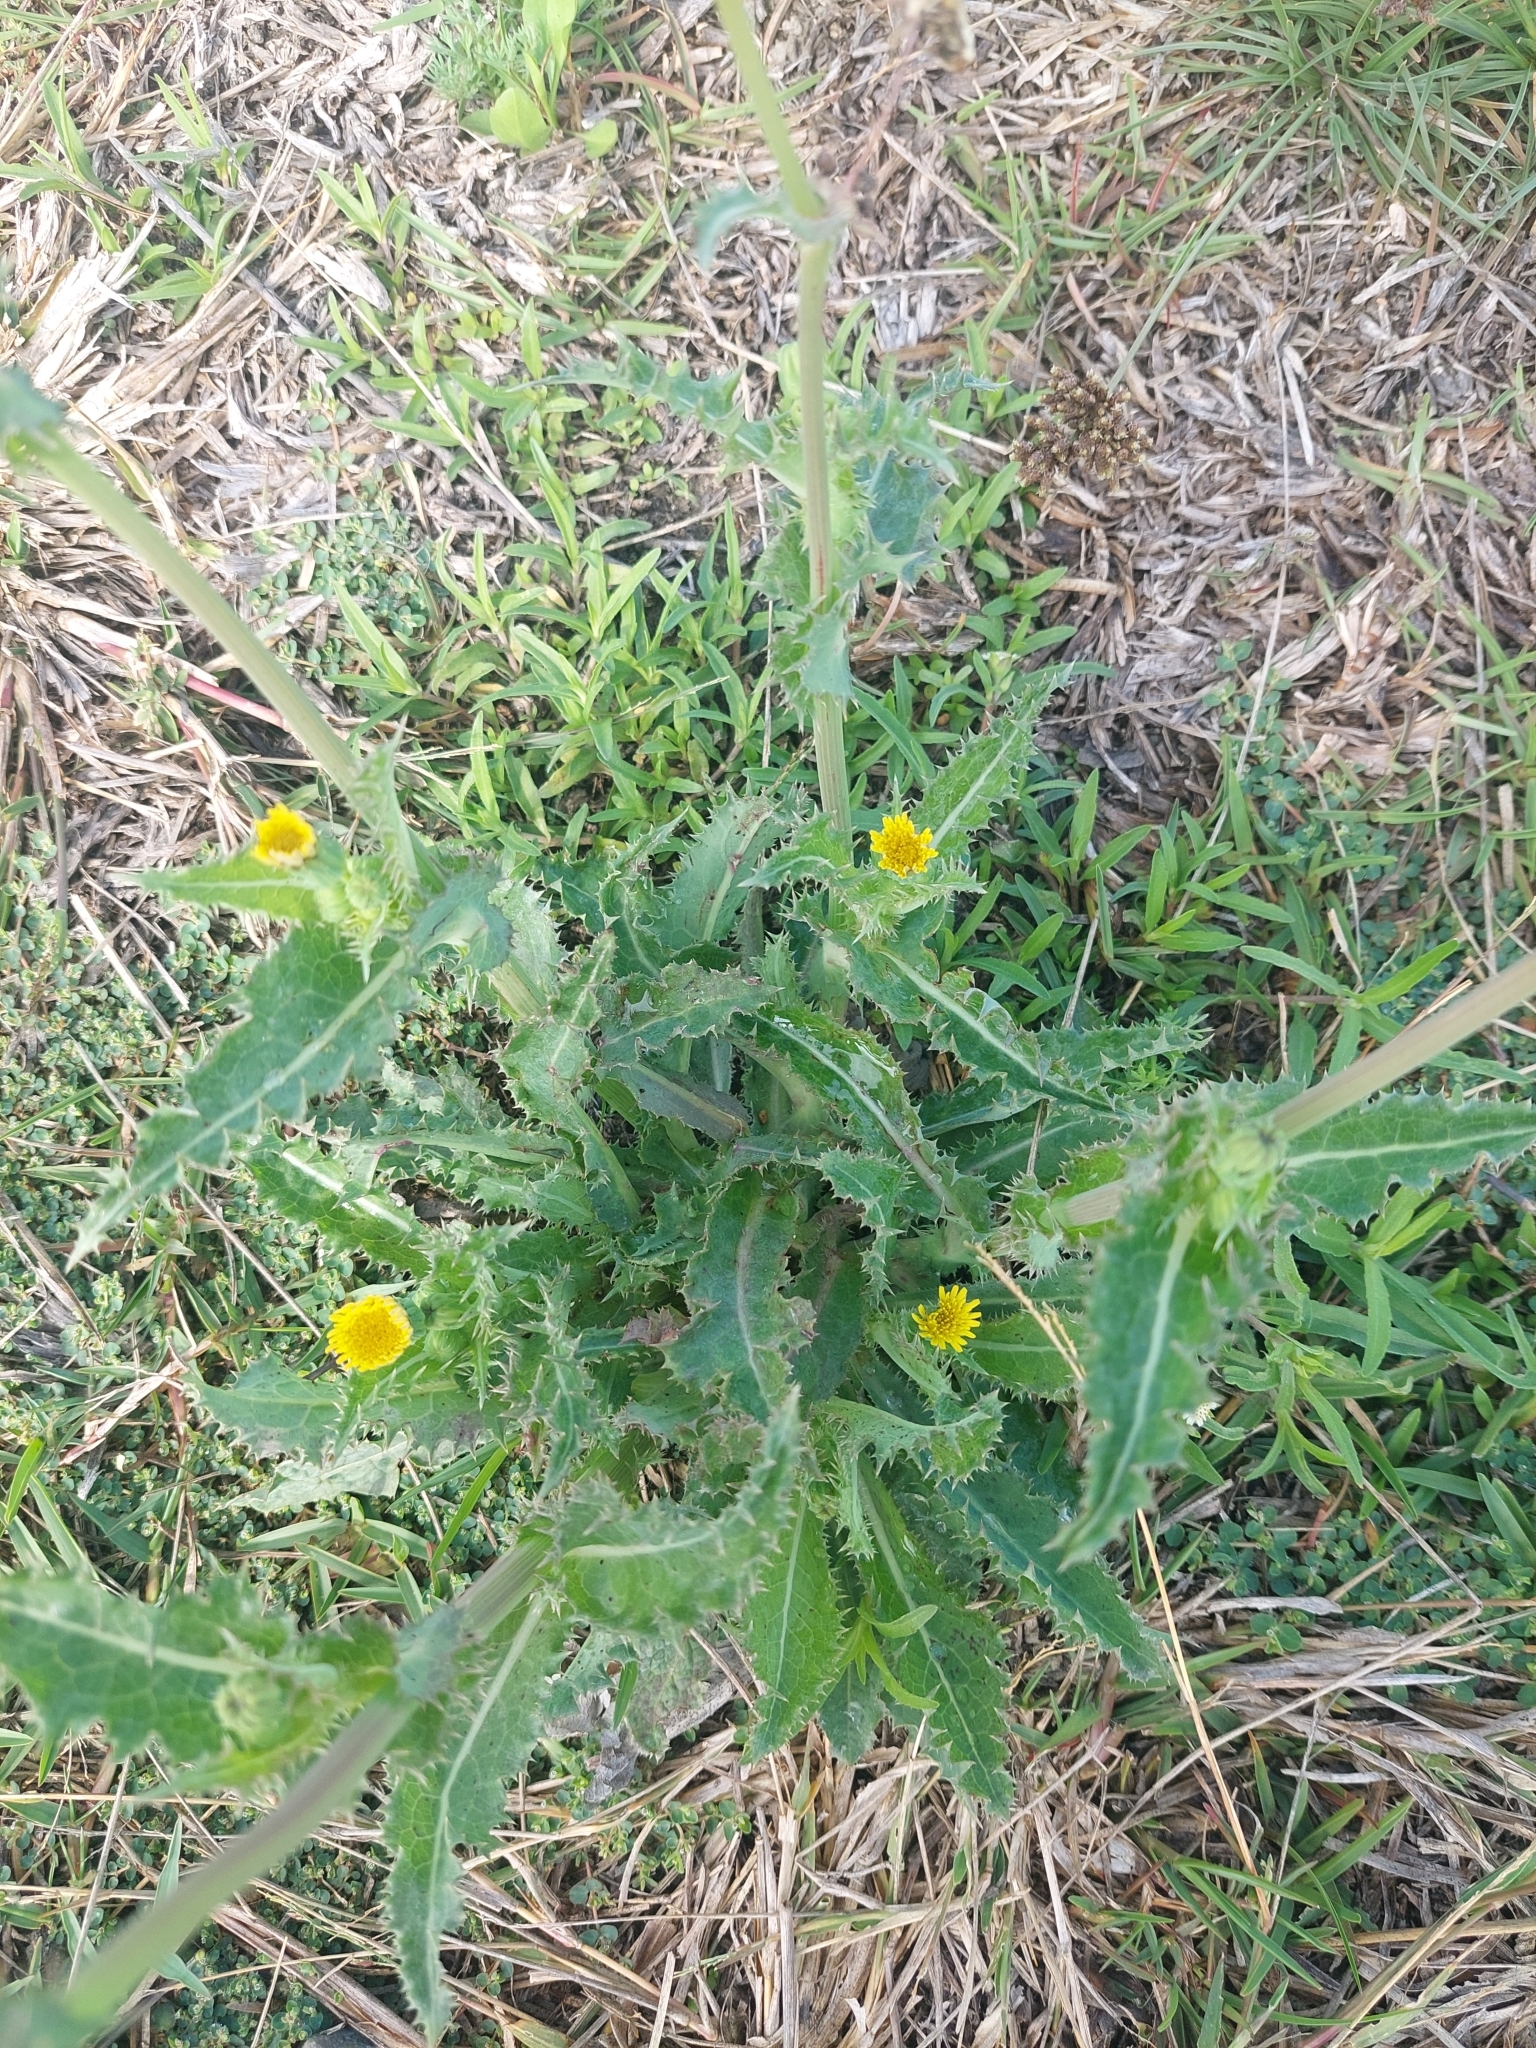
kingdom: Plantae
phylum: Tracheophyta
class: Magnoliopsida
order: Asterales
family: Asteraceae
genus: Sonchus
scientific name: Sonchus asper
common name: Prickly sow-thistle
